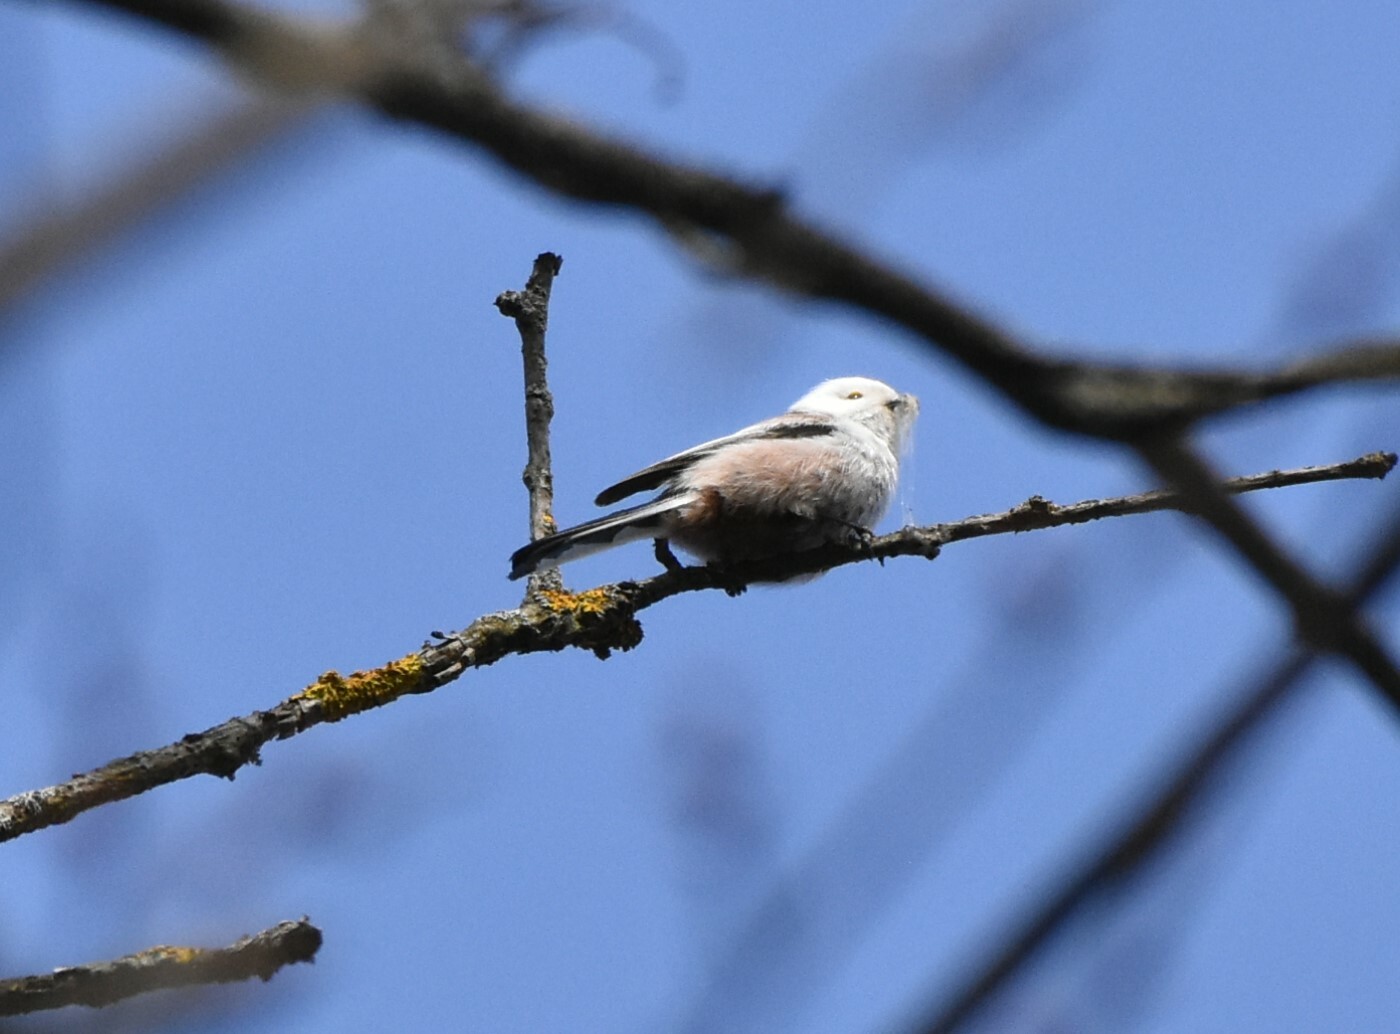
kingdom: Animalia
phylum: Chordata
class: Aves
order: Passeriformes
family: Aegithalidae
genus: Aegithalos
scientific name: Aegithalos caudatus
